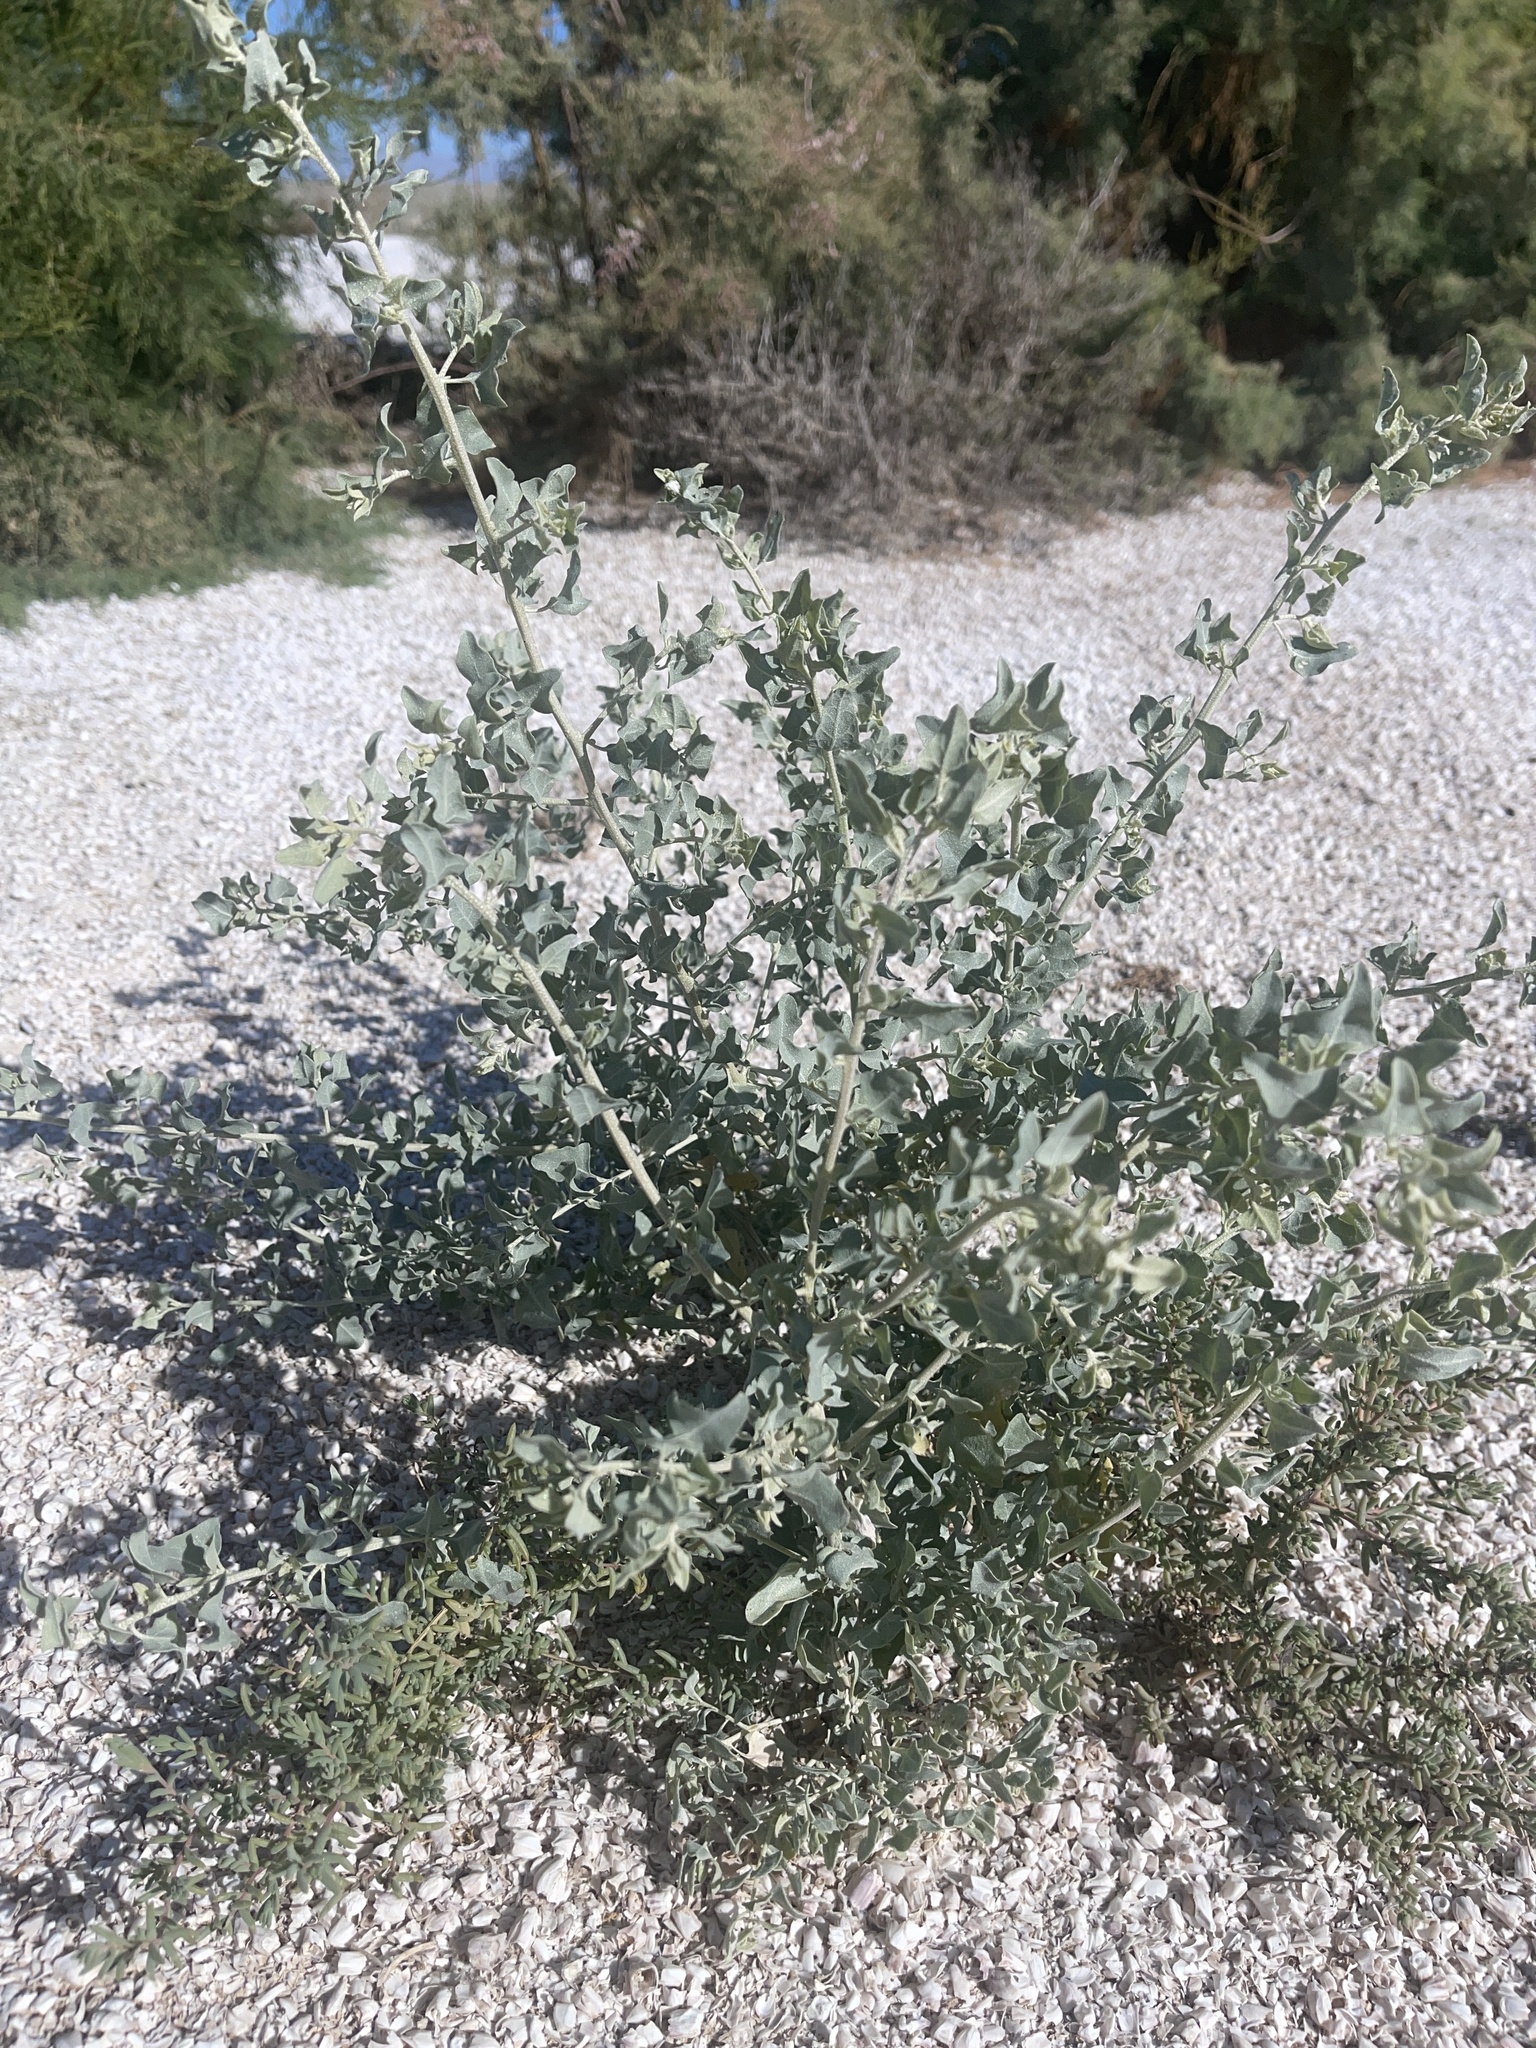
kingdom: Plantae
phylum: Tracheophyta
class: Magnoliopsida
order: Caryophyllales
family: Amaranthaceae
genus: Atriplex
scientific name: Atriplex lentiformis
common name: Big saltbush
